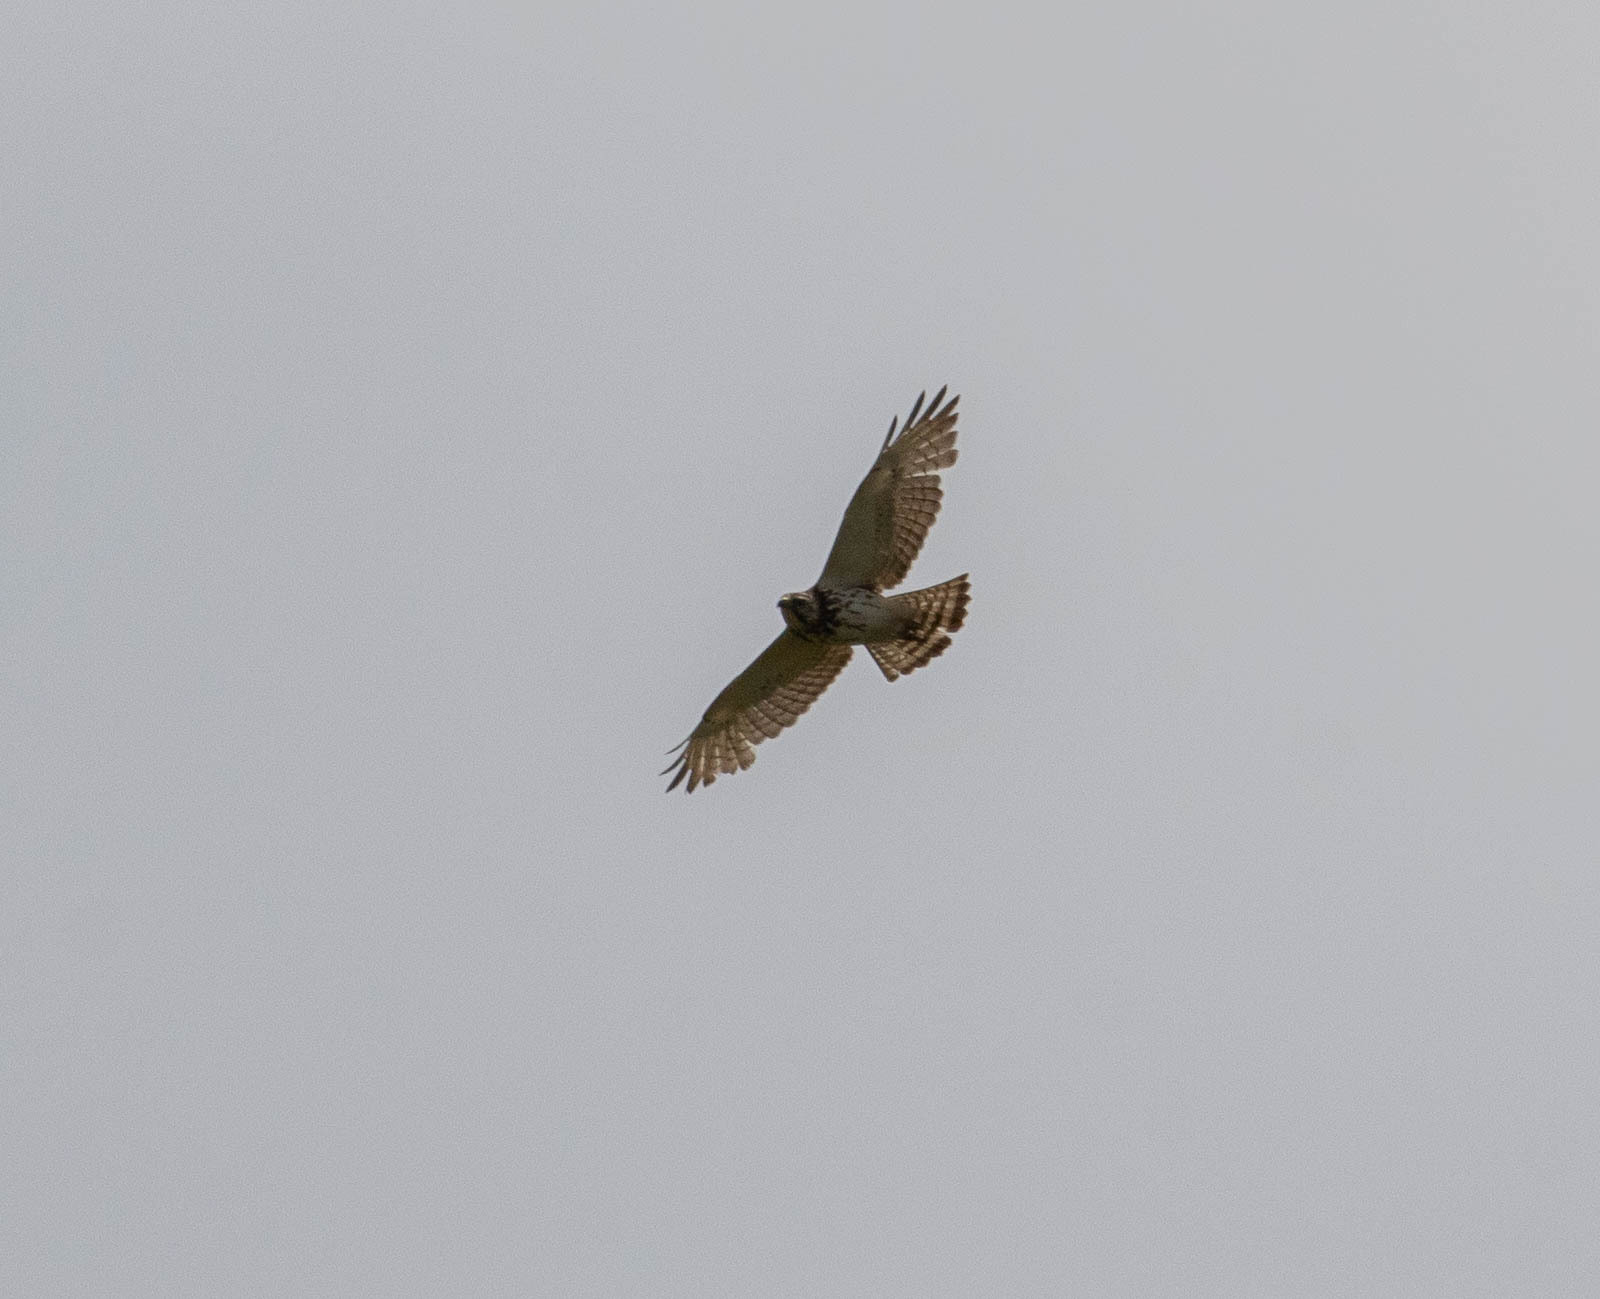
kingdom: Animalia
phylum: Chordata
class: Aves
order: Accipitriformes
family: Accipitridae
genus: Buteo
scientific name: Buteo platypterus
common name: Broad-winged hawk
